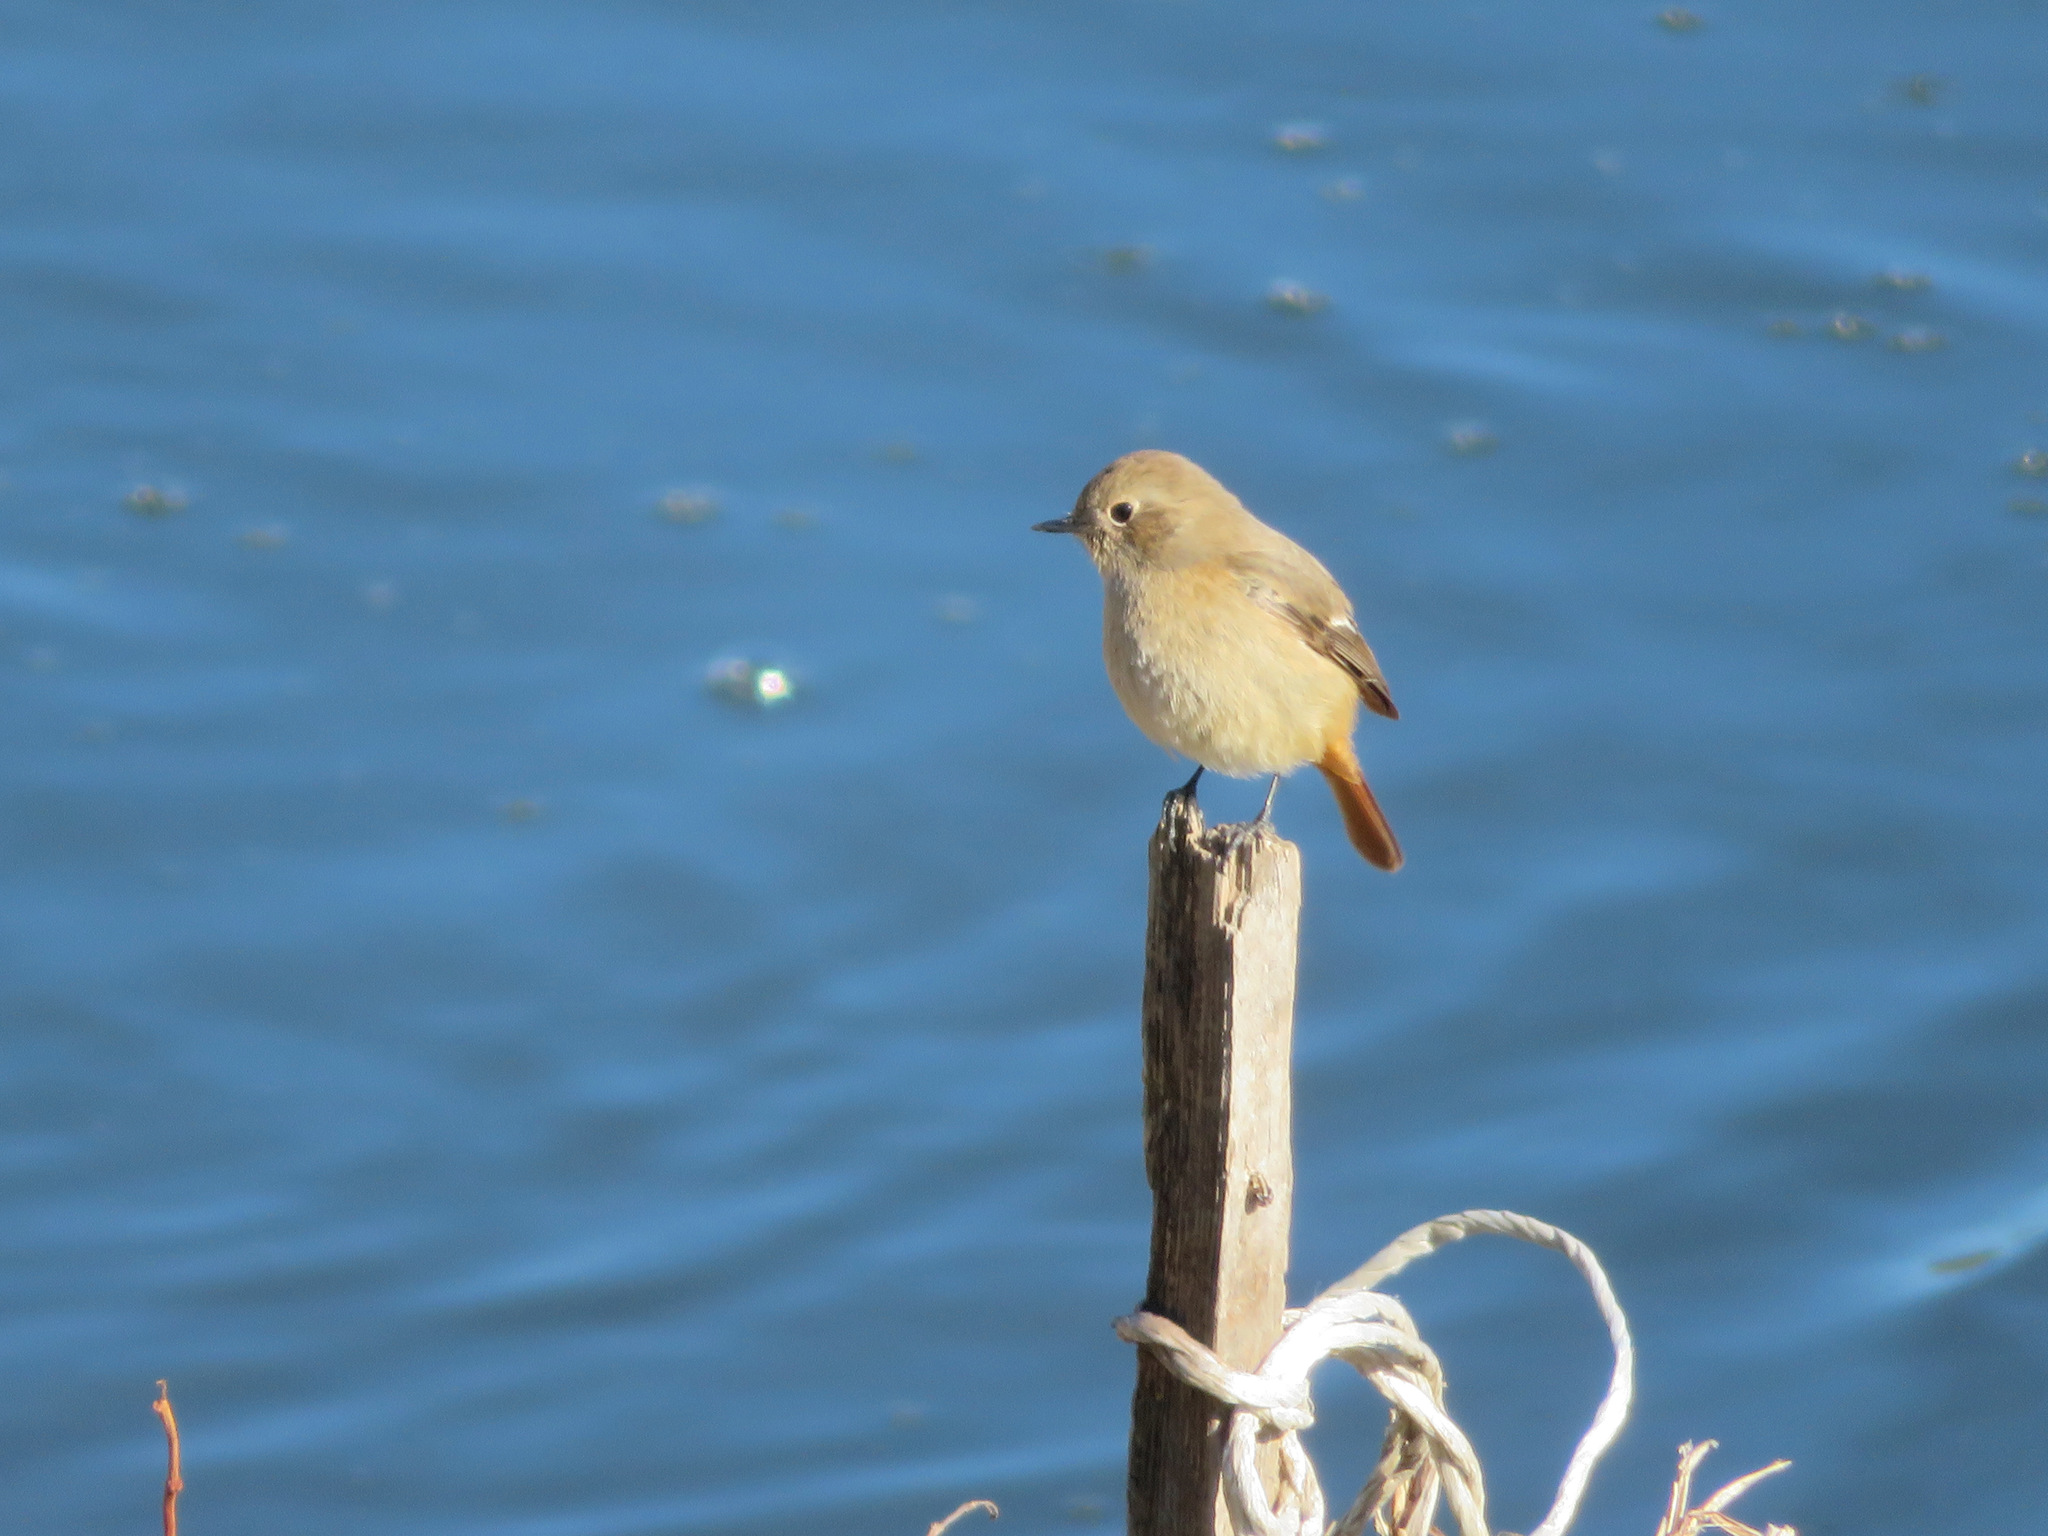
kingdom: Animalia
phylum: Chordata
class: Aves
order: Passeriformes
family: Muscicapidae
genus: Phoenicurus
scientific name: Phoenicurus auroreus
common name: Daurian redstart
